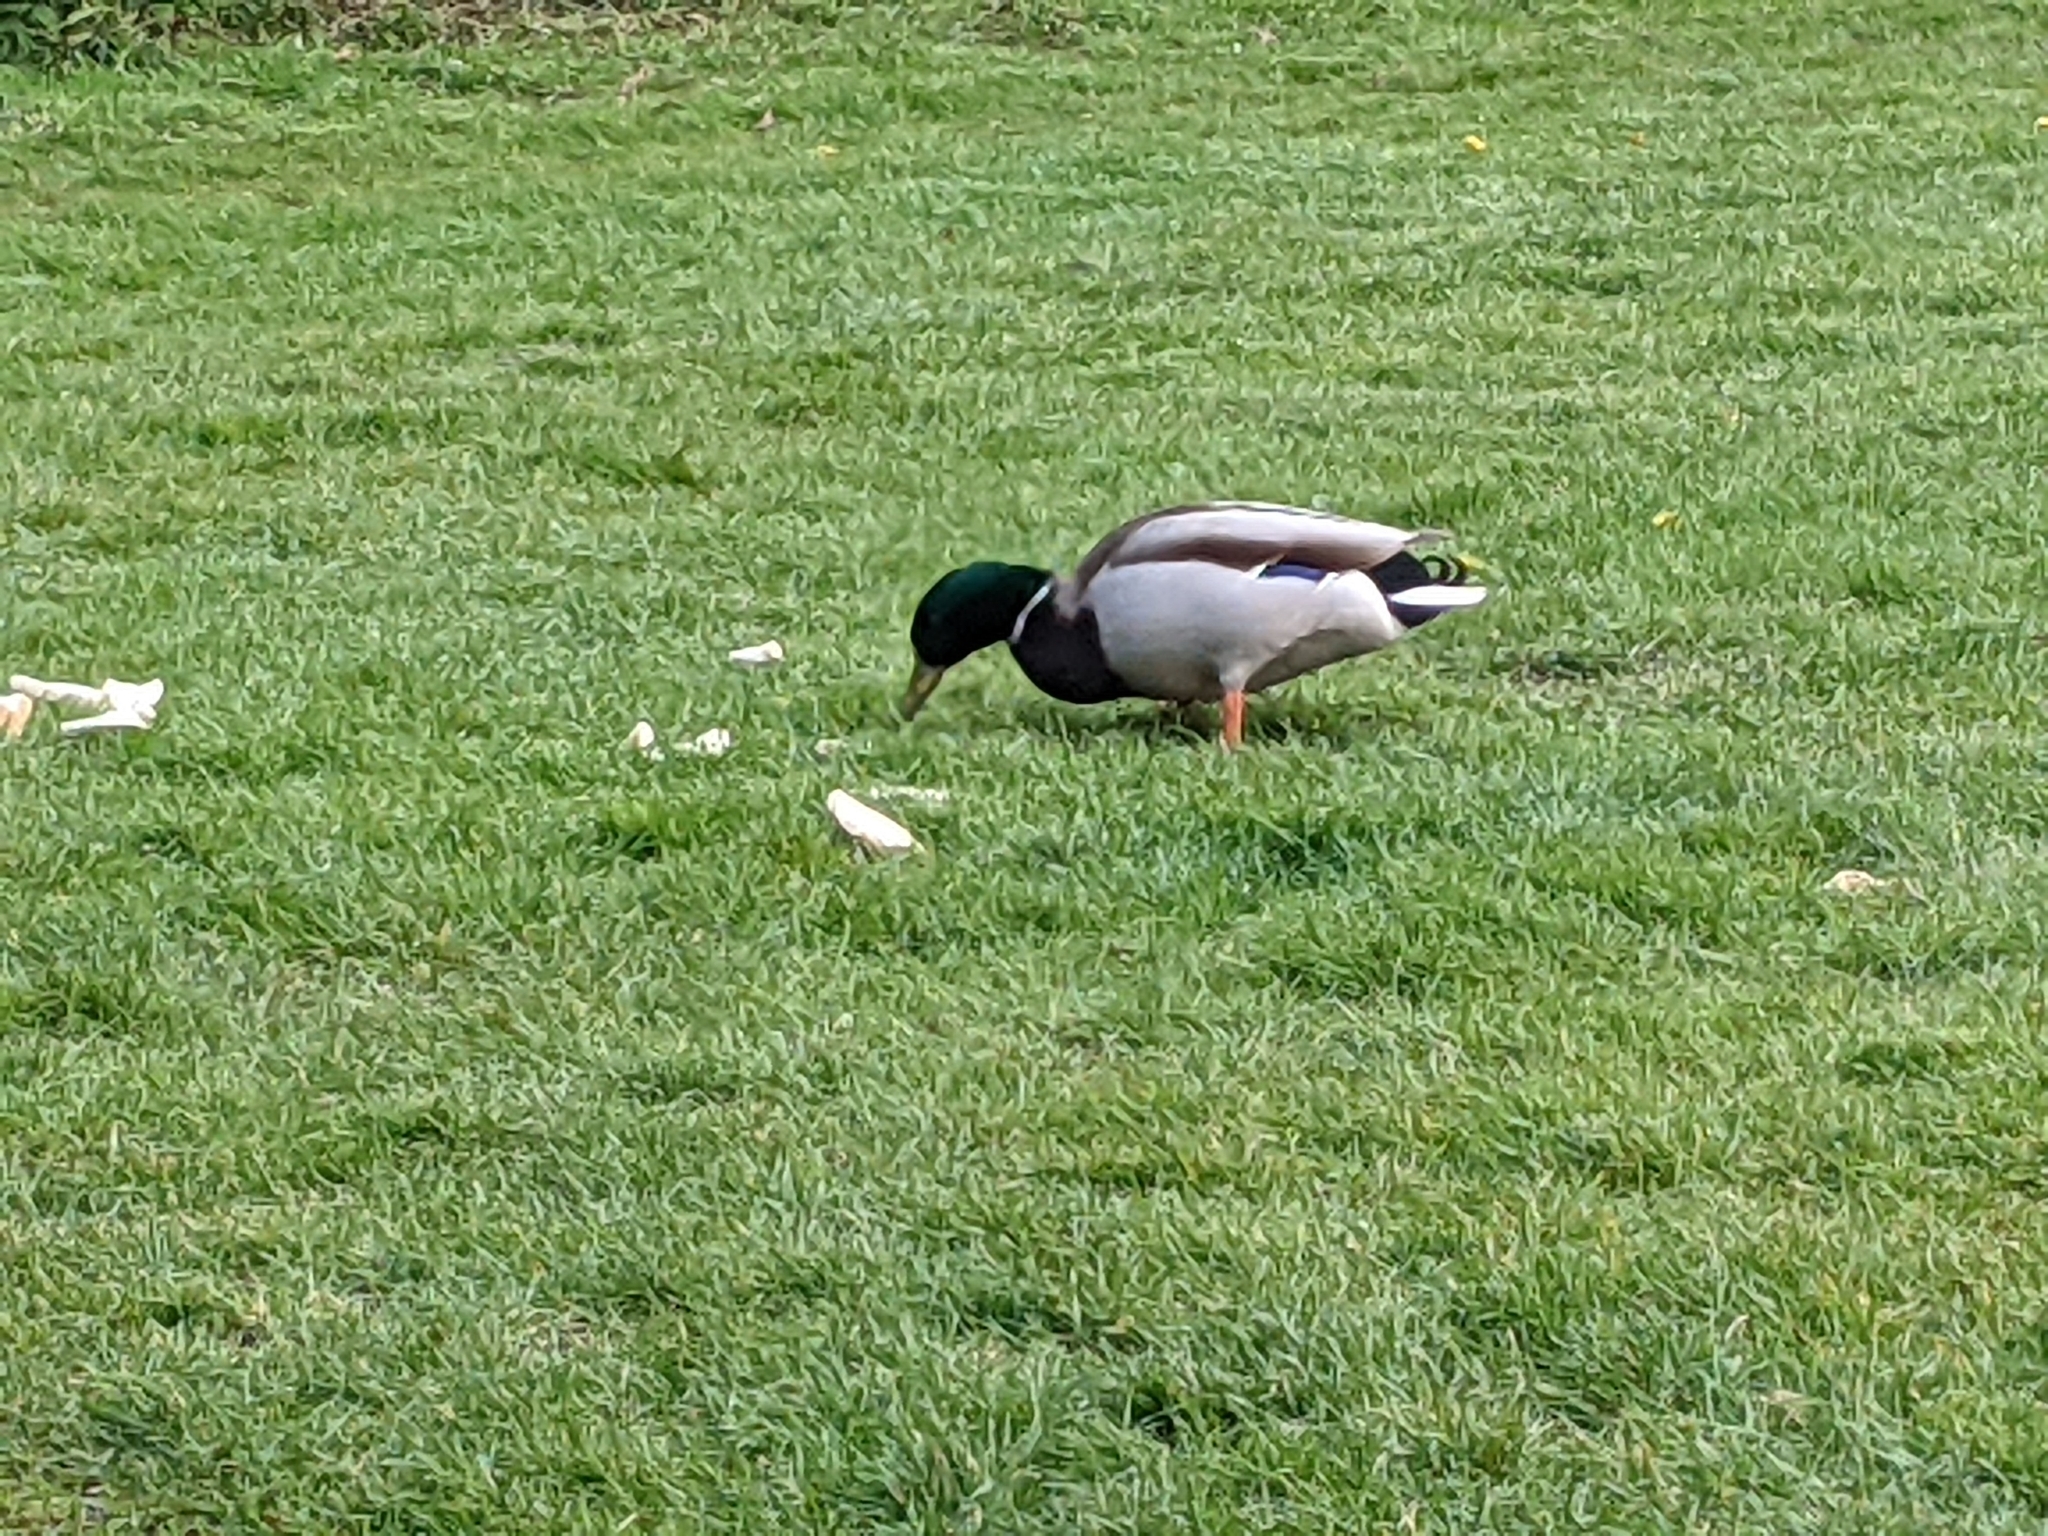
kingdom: Animalia
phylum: Chordata
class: Aves
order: Anseriformes
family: Anatidae
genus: Anas
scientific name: Anas platyrhynchos
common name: Mallard
